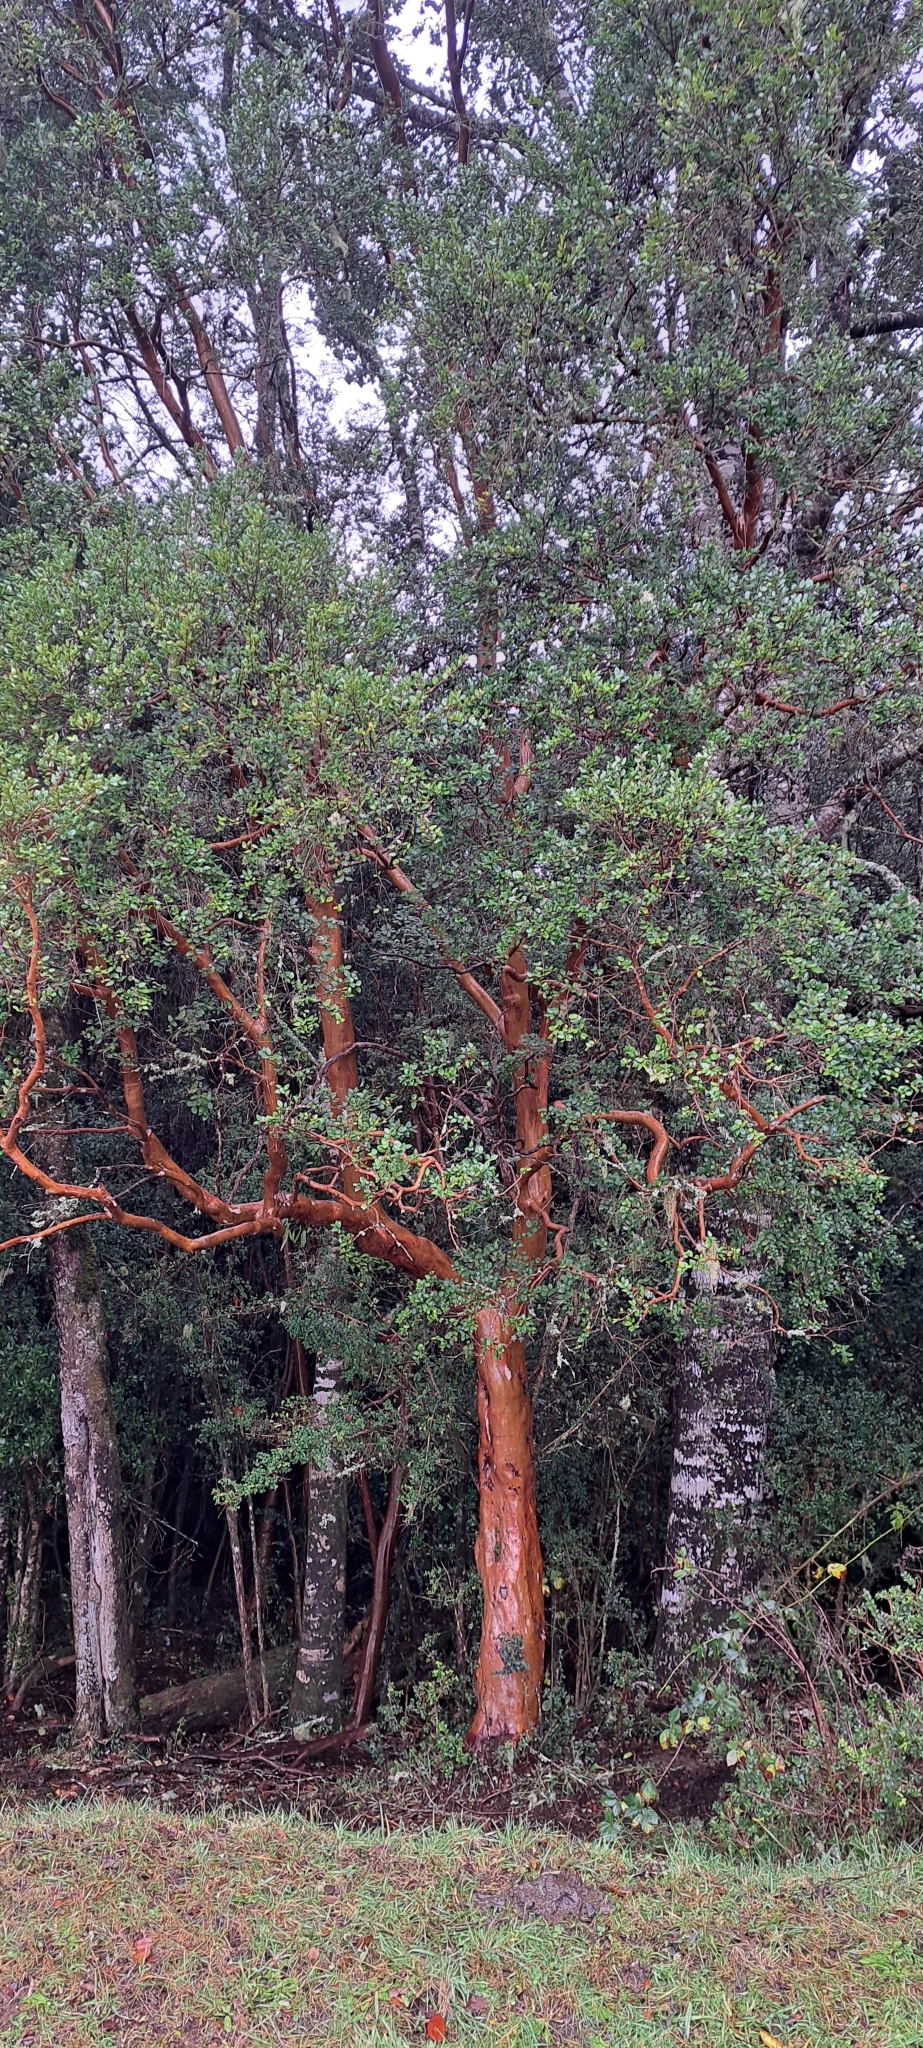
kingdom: Plantae
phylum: Tracheophyta
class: Magnoliopsida
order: Myrtales
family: Myrtaceae
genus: Luma
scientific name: Luma apiculata
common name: Chilean myrtle
